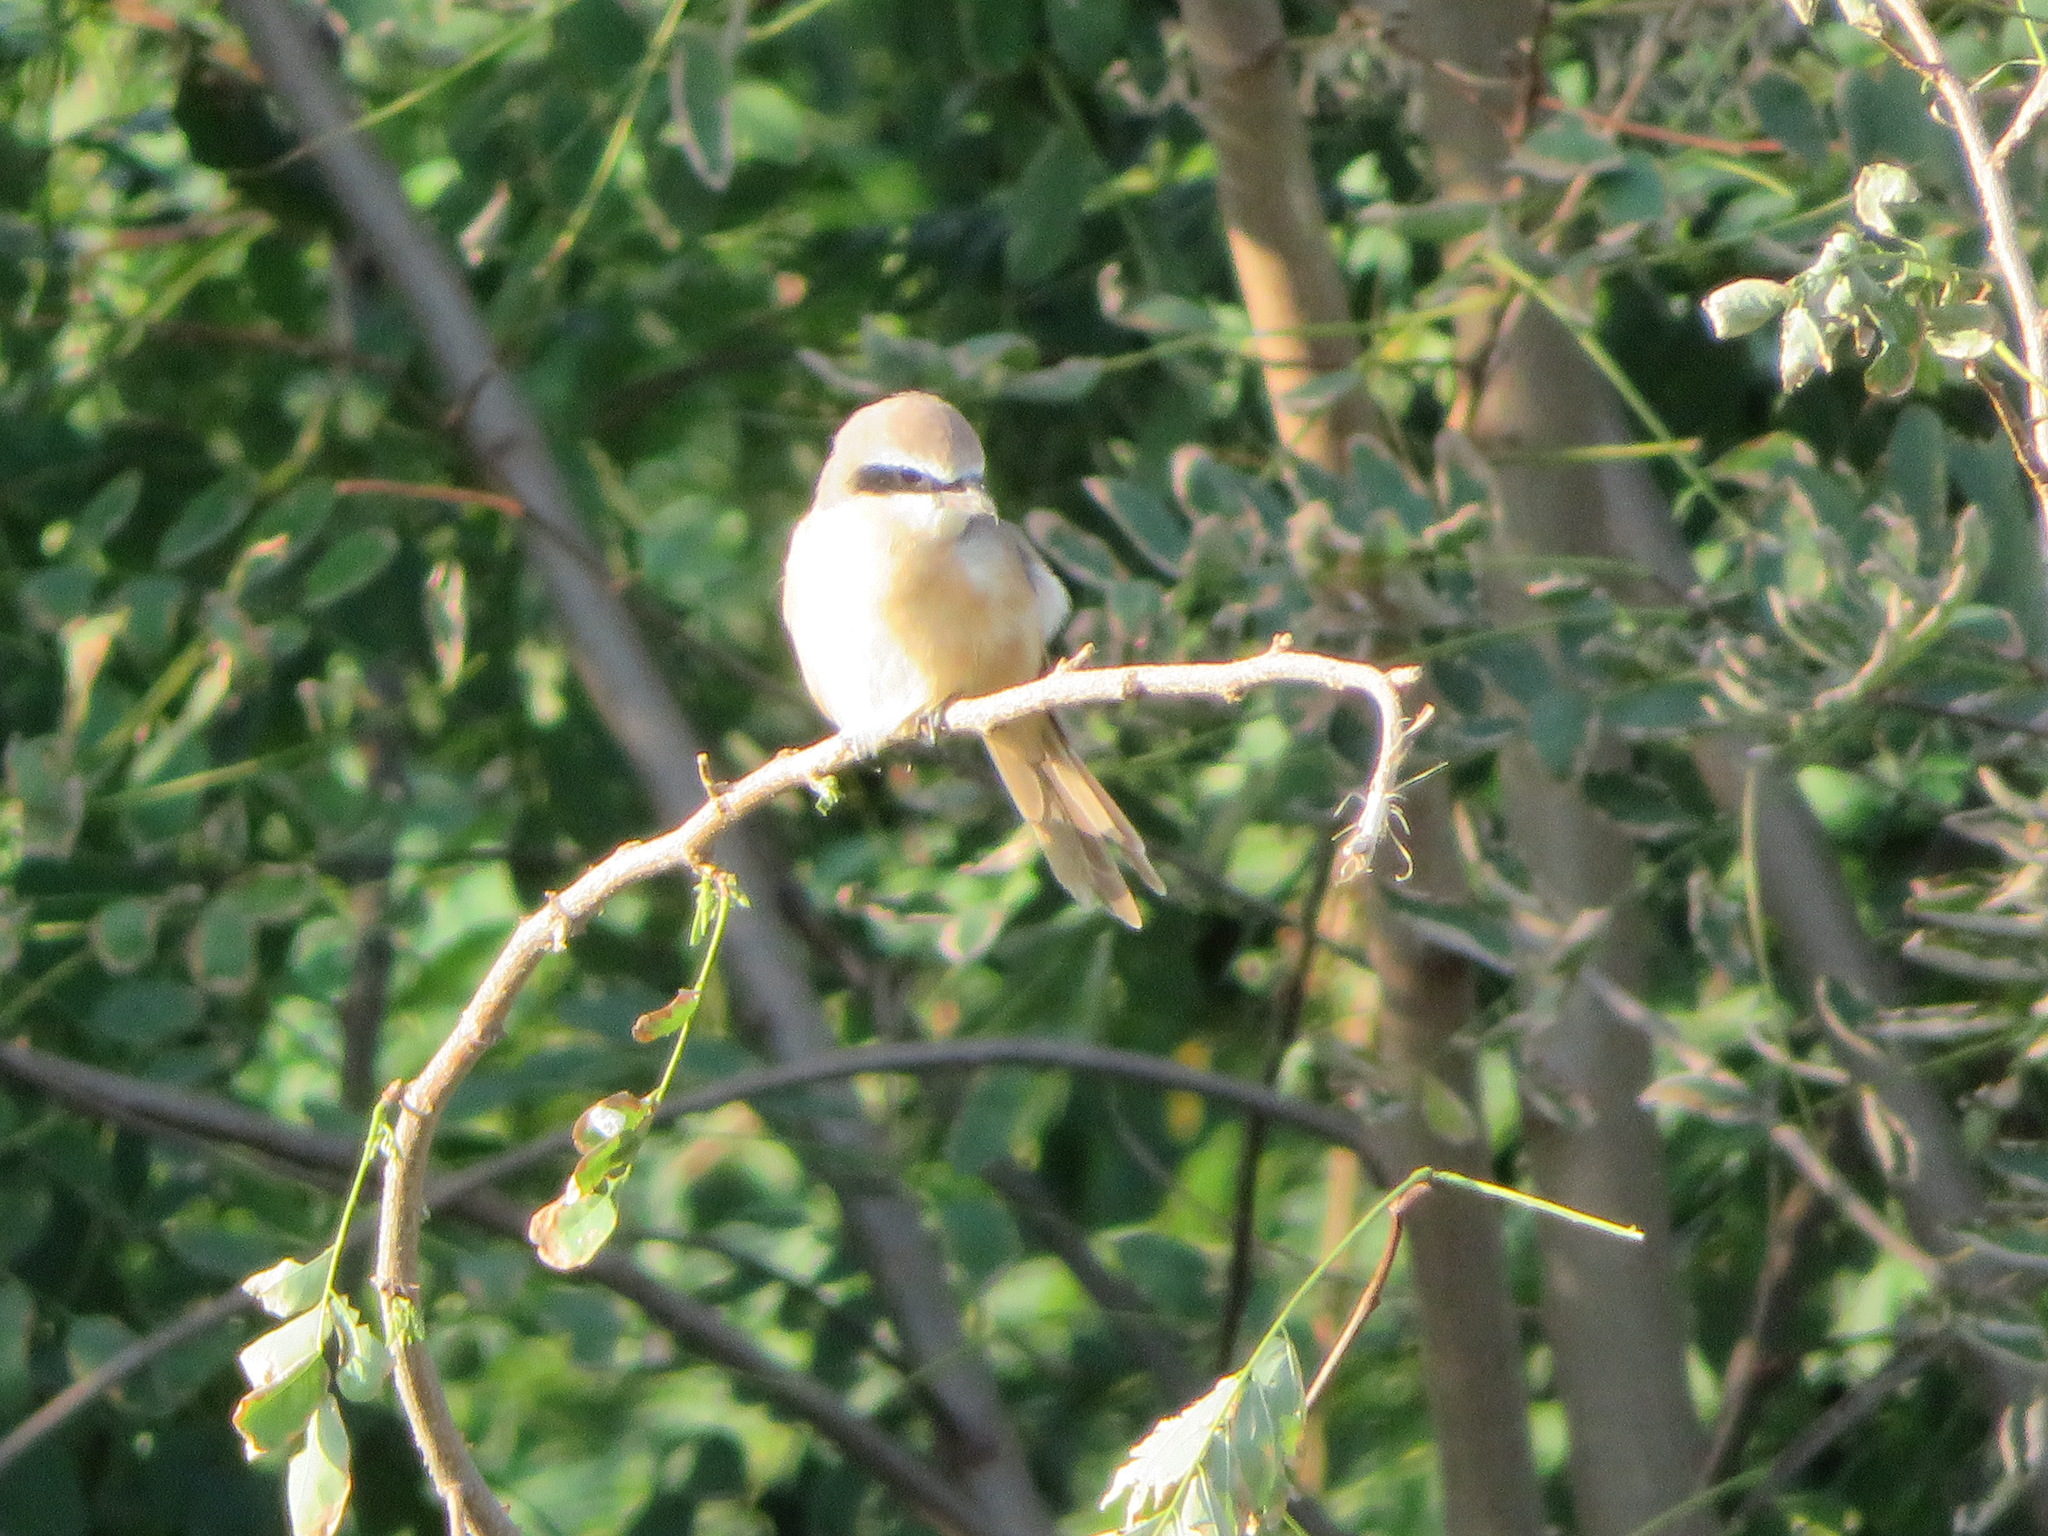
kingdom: Animalia
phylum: Chordata
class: Aves
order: Passeriformes
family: Laniidae
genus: Lanius
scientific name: Lanius cristatus
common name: Brown shrike
